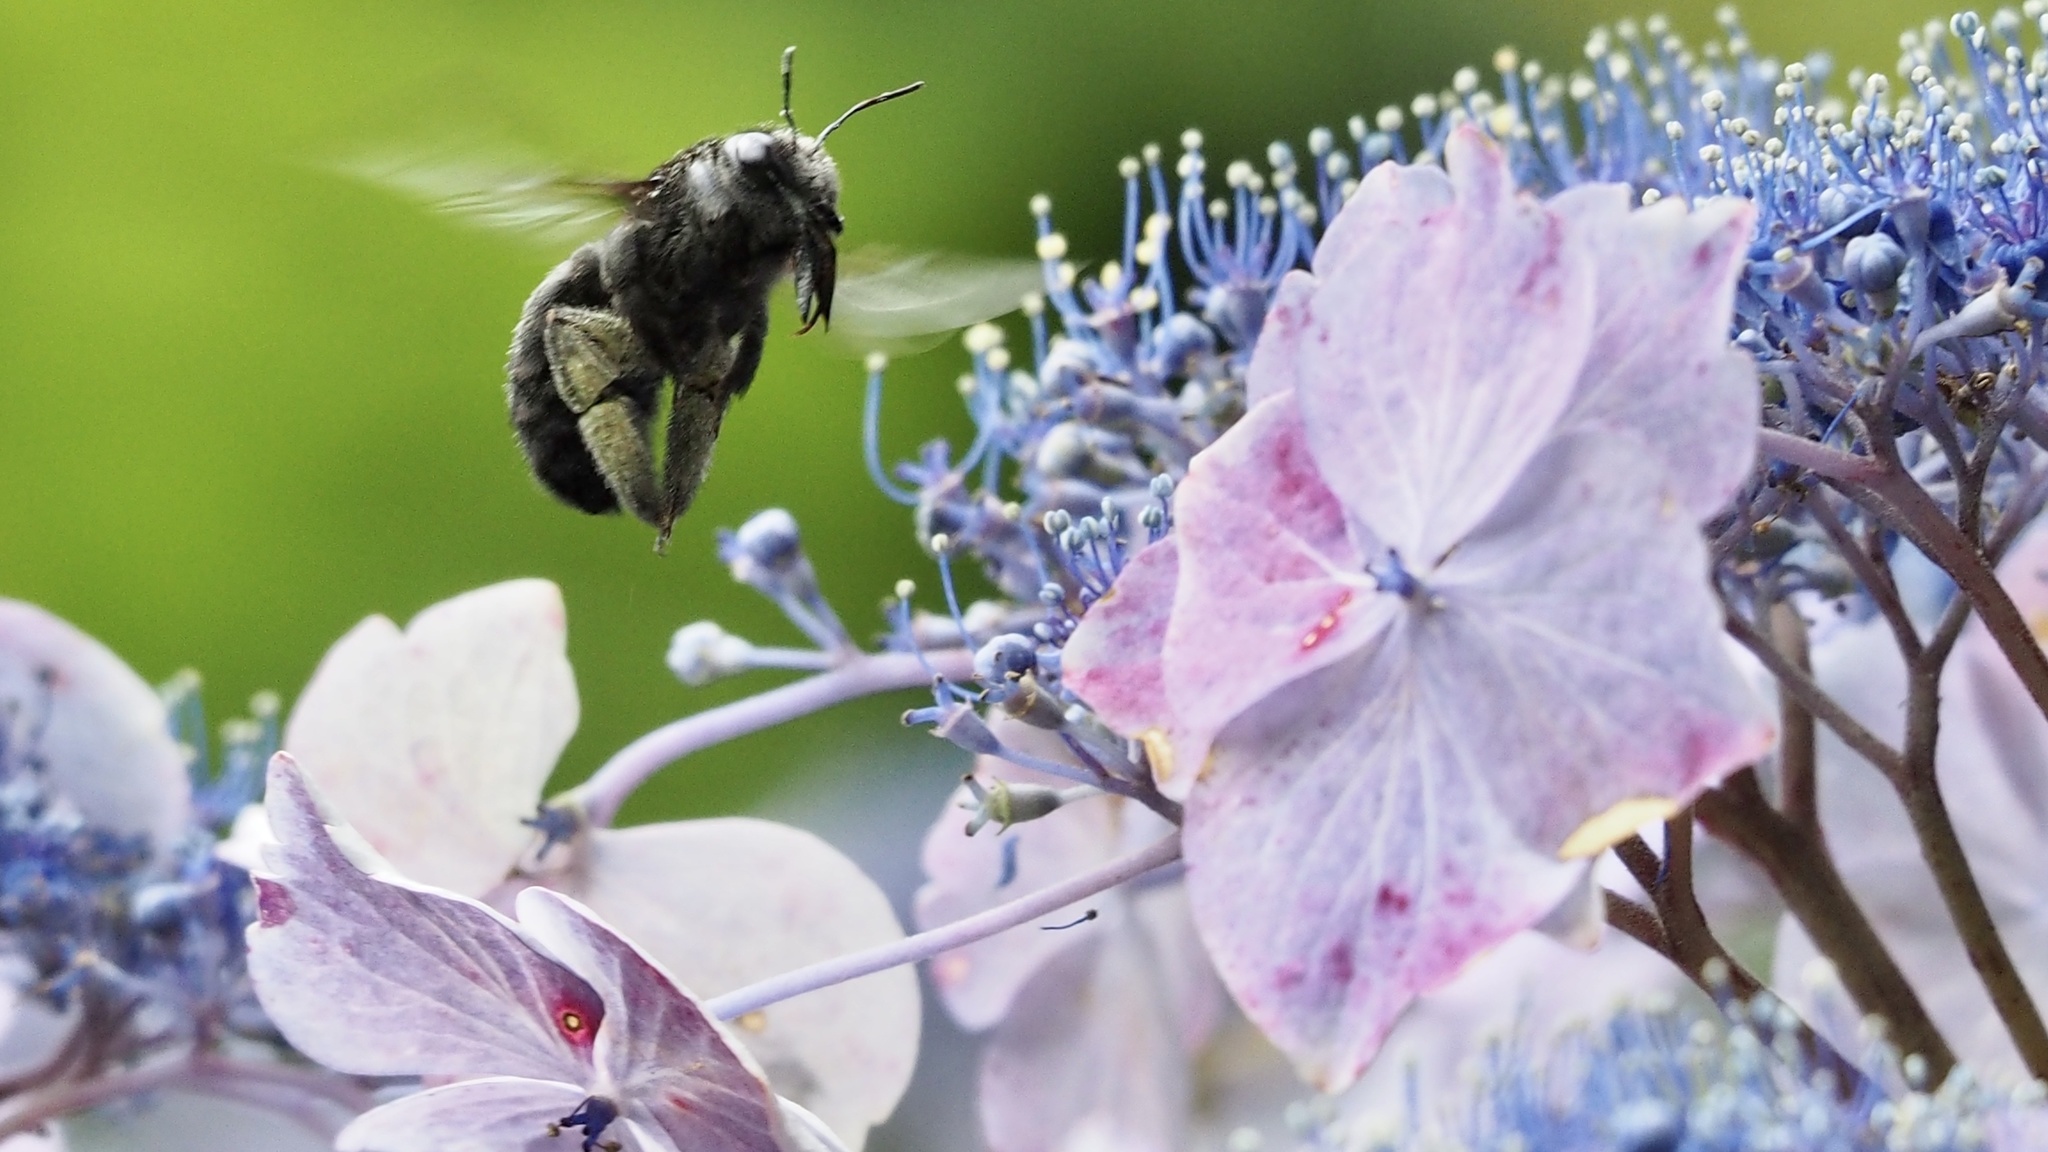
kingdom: Animalia
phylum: Arthropoda
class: Insecta
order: Hymenoptera
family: Apidae
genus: Xylocopa
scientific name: Xylocopa tranquebarorum
